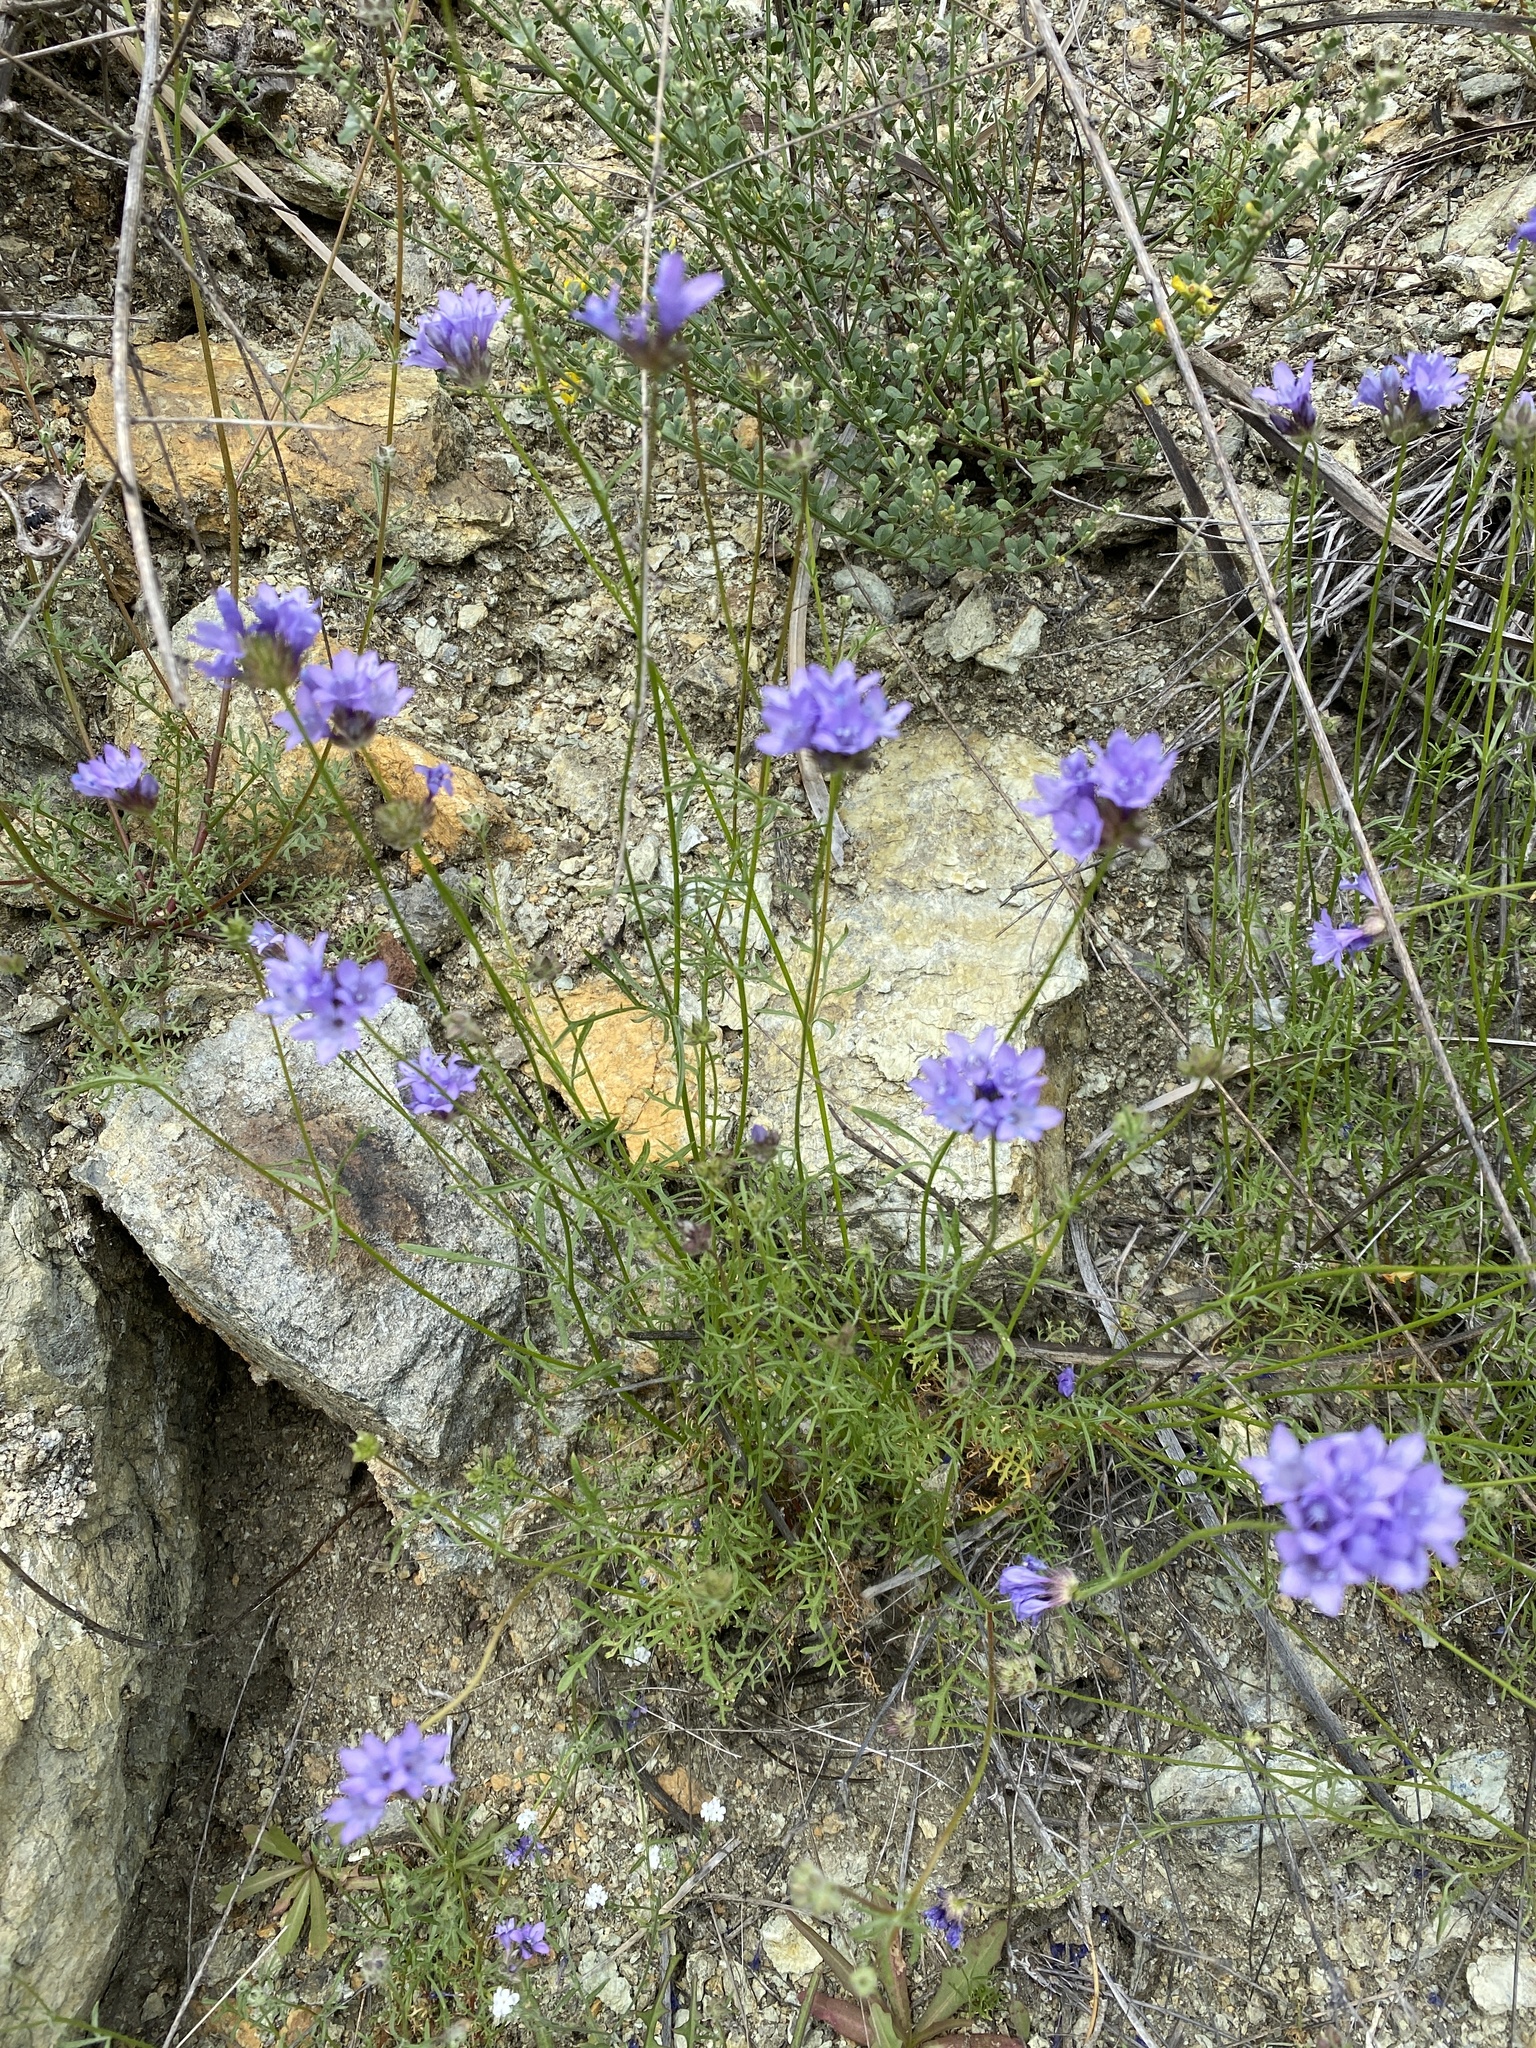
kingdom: Plantae
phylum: Tracheophyta
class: Magnoliopsida
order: Ericales
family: Polemoniaceae
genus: Gilia
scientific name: Gilia achilleifolia
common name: California gily-flower
